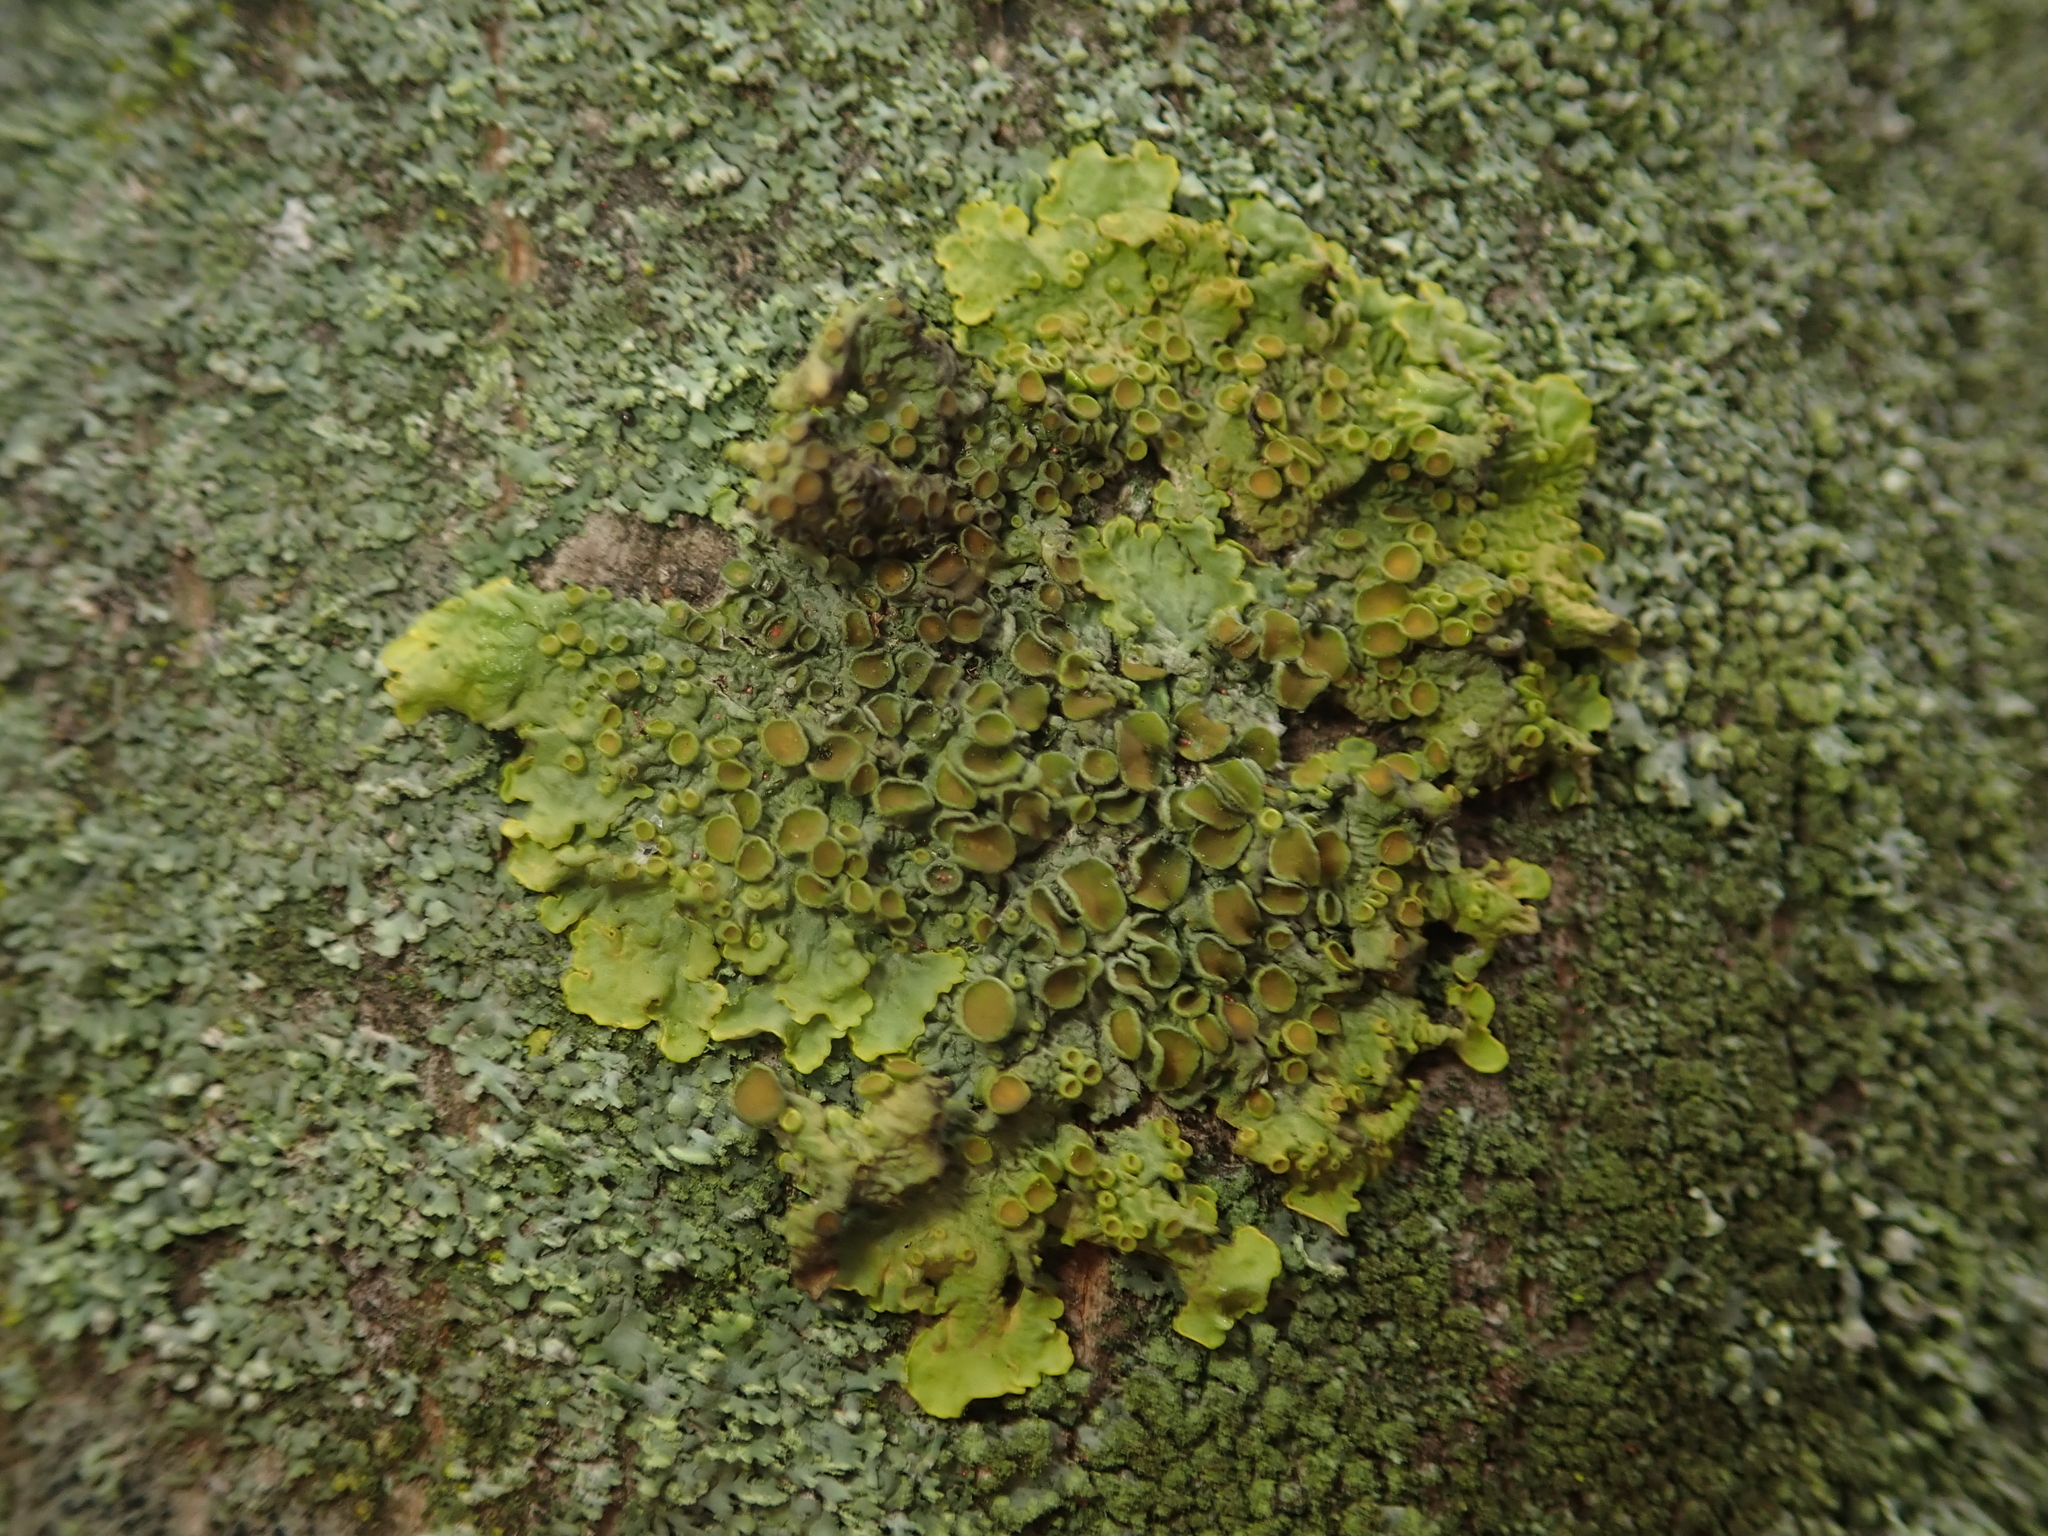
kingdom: Fungi
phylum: Ascomycota
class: Lecanoromycetes
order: Teloschistales
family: Teloschistaceae
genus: Xanthoria
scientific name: Xanthoria parietina
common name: Common orange lichen
